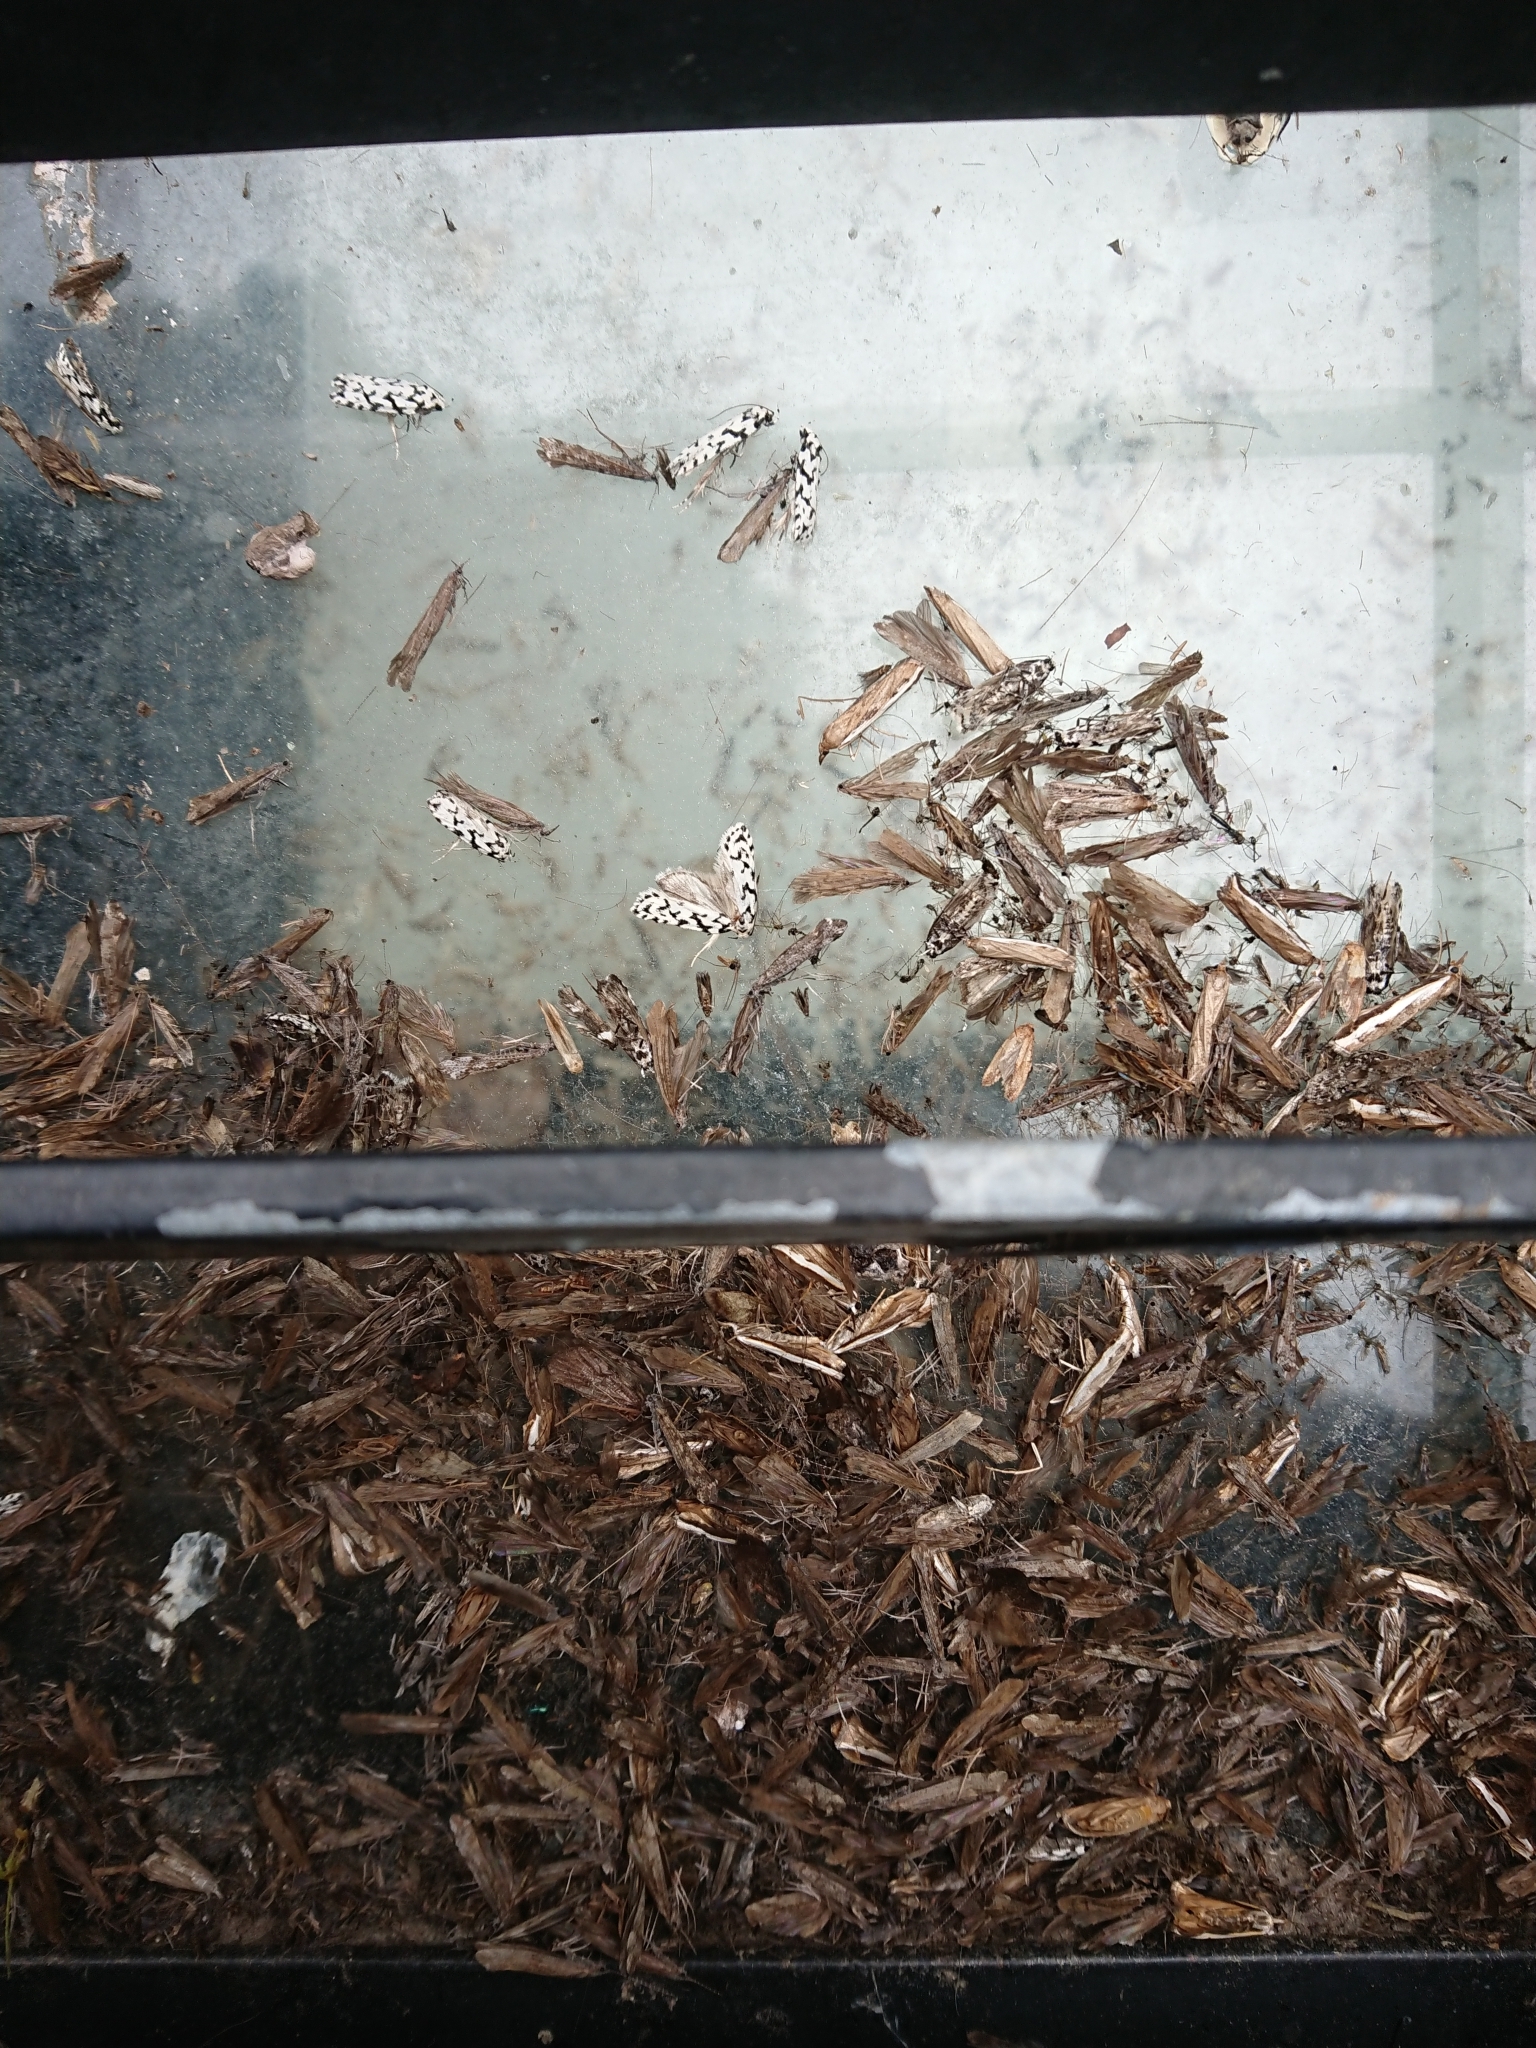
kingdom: Animalia
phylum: Arthropoda
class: Insecta
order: Lepidoptera
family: Oecophoridae
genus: Izatha
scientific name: Izatha katadiktya
